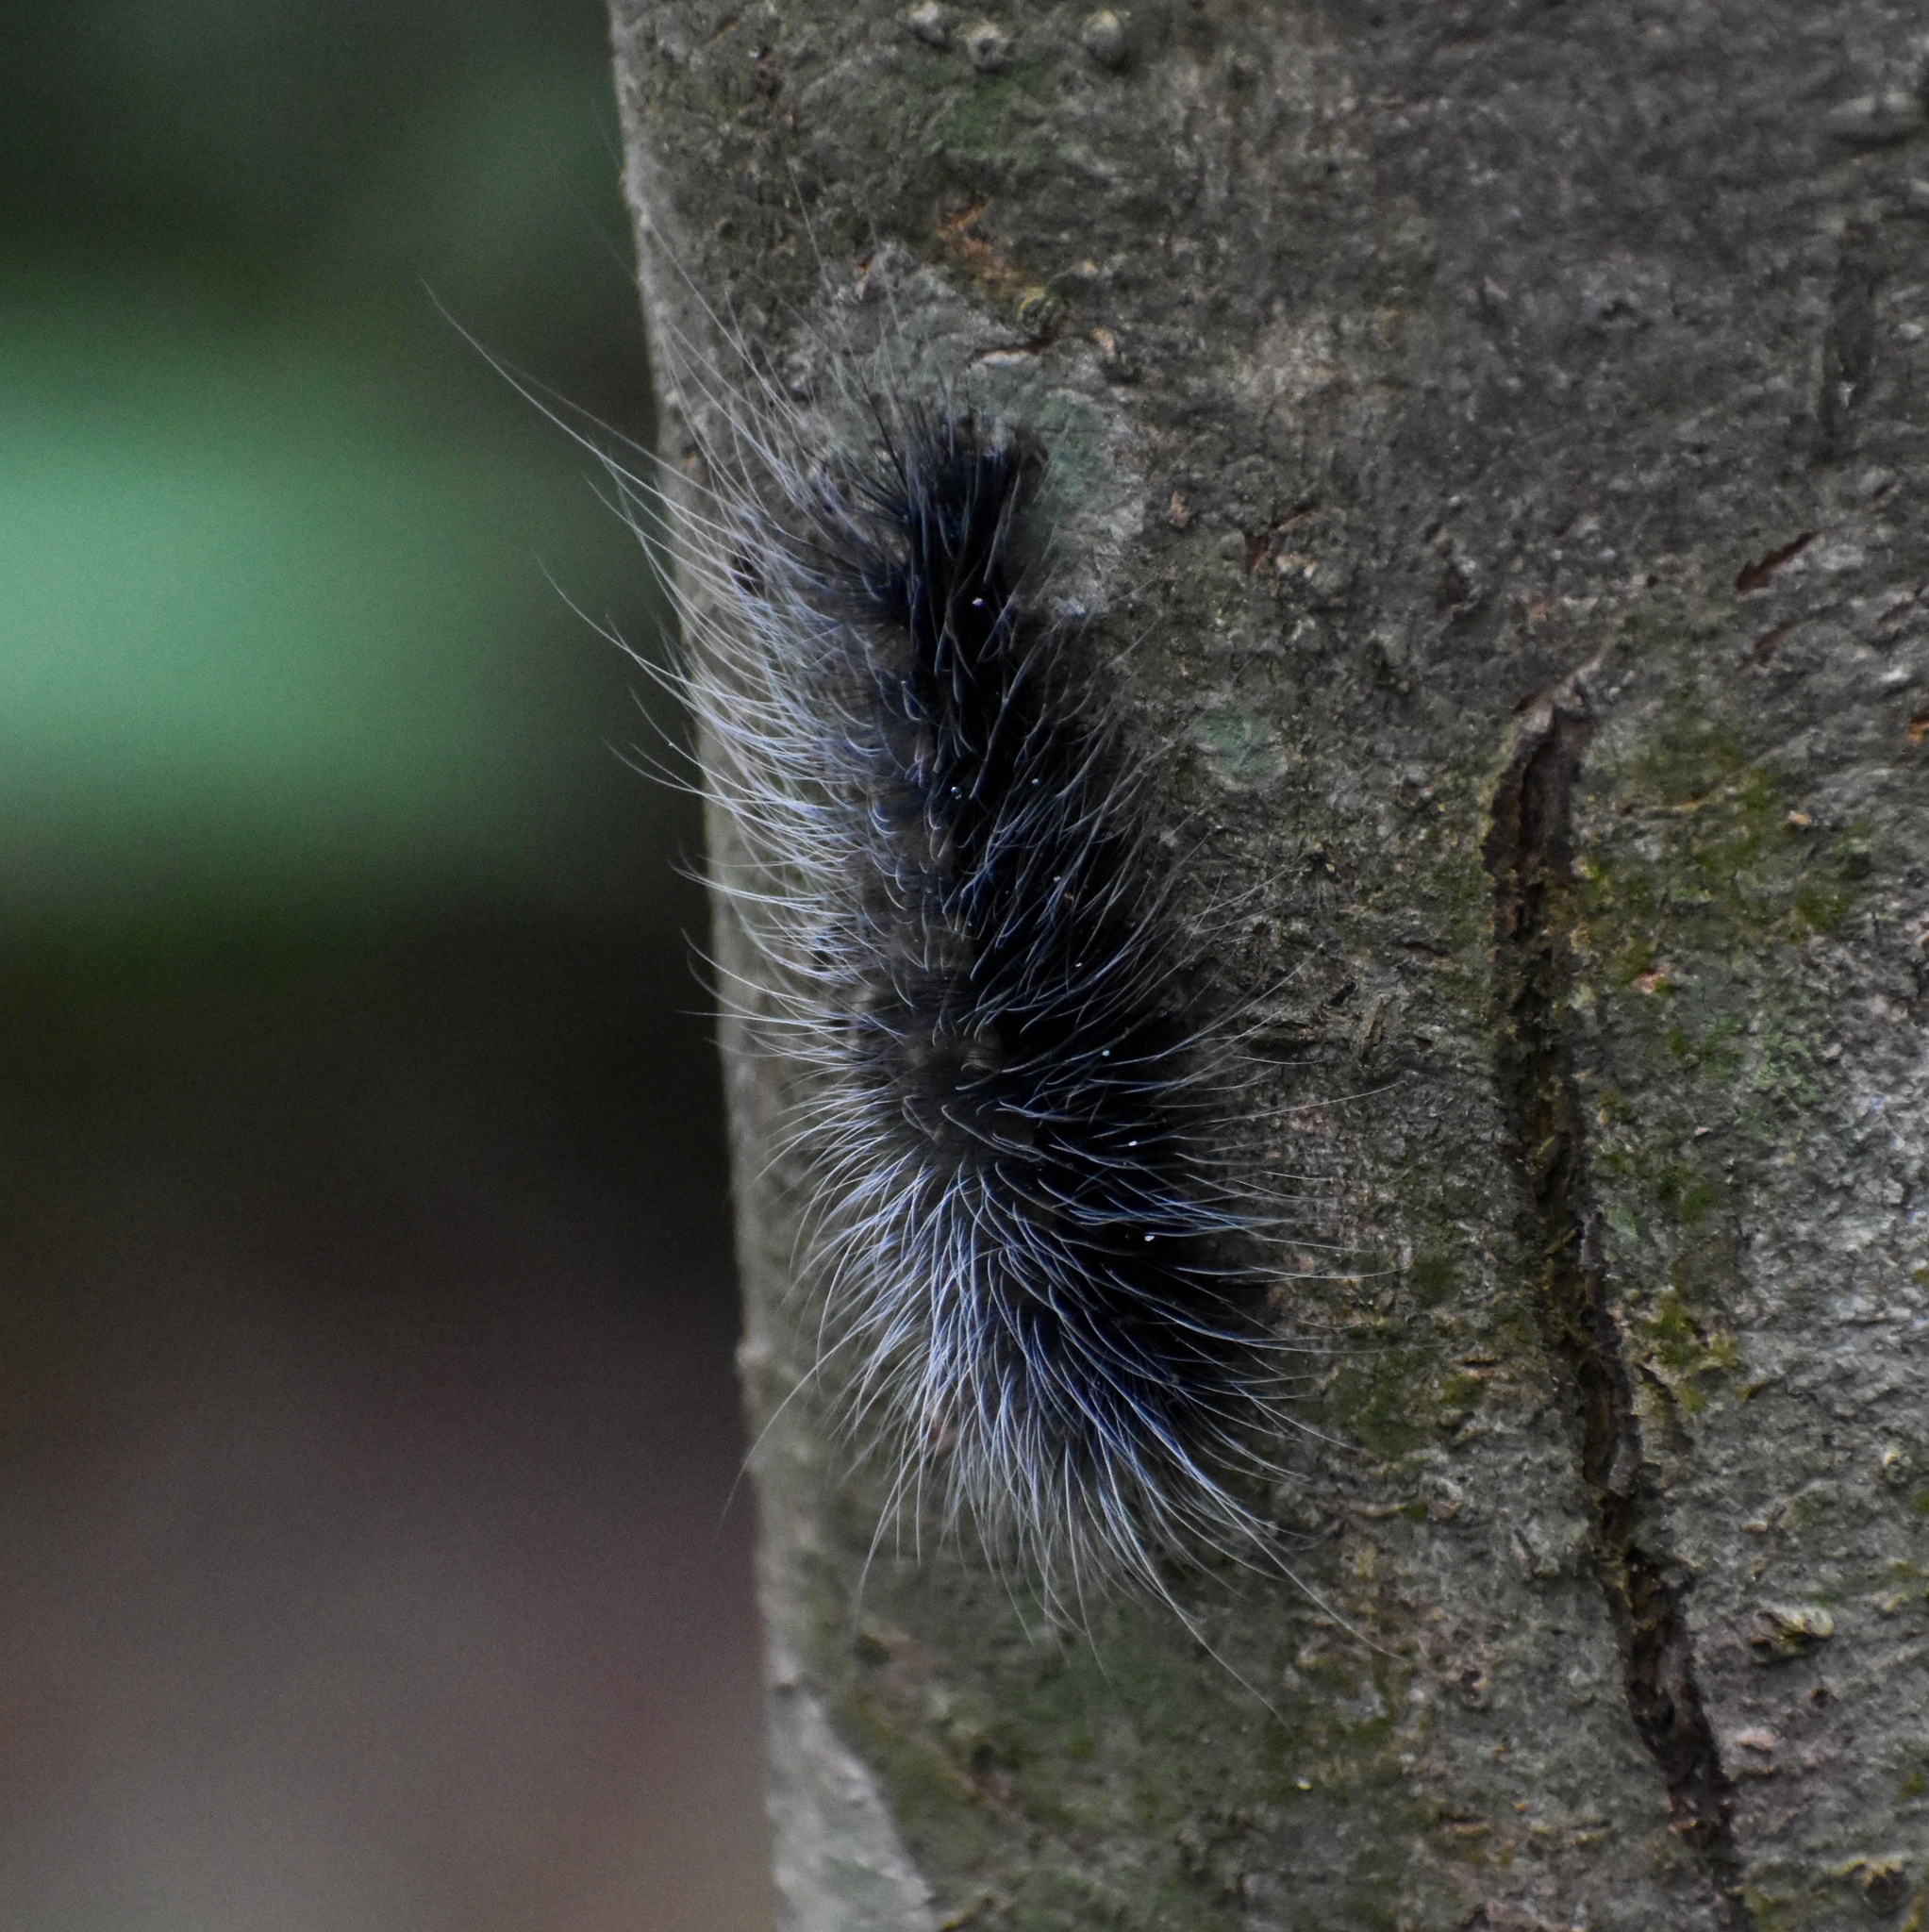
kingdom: Animalia
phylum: Arthropoda
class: Insecta
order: Lepidoptera
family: Erebidae
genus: Macrobrochis
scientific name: Macrobrochis gigas
